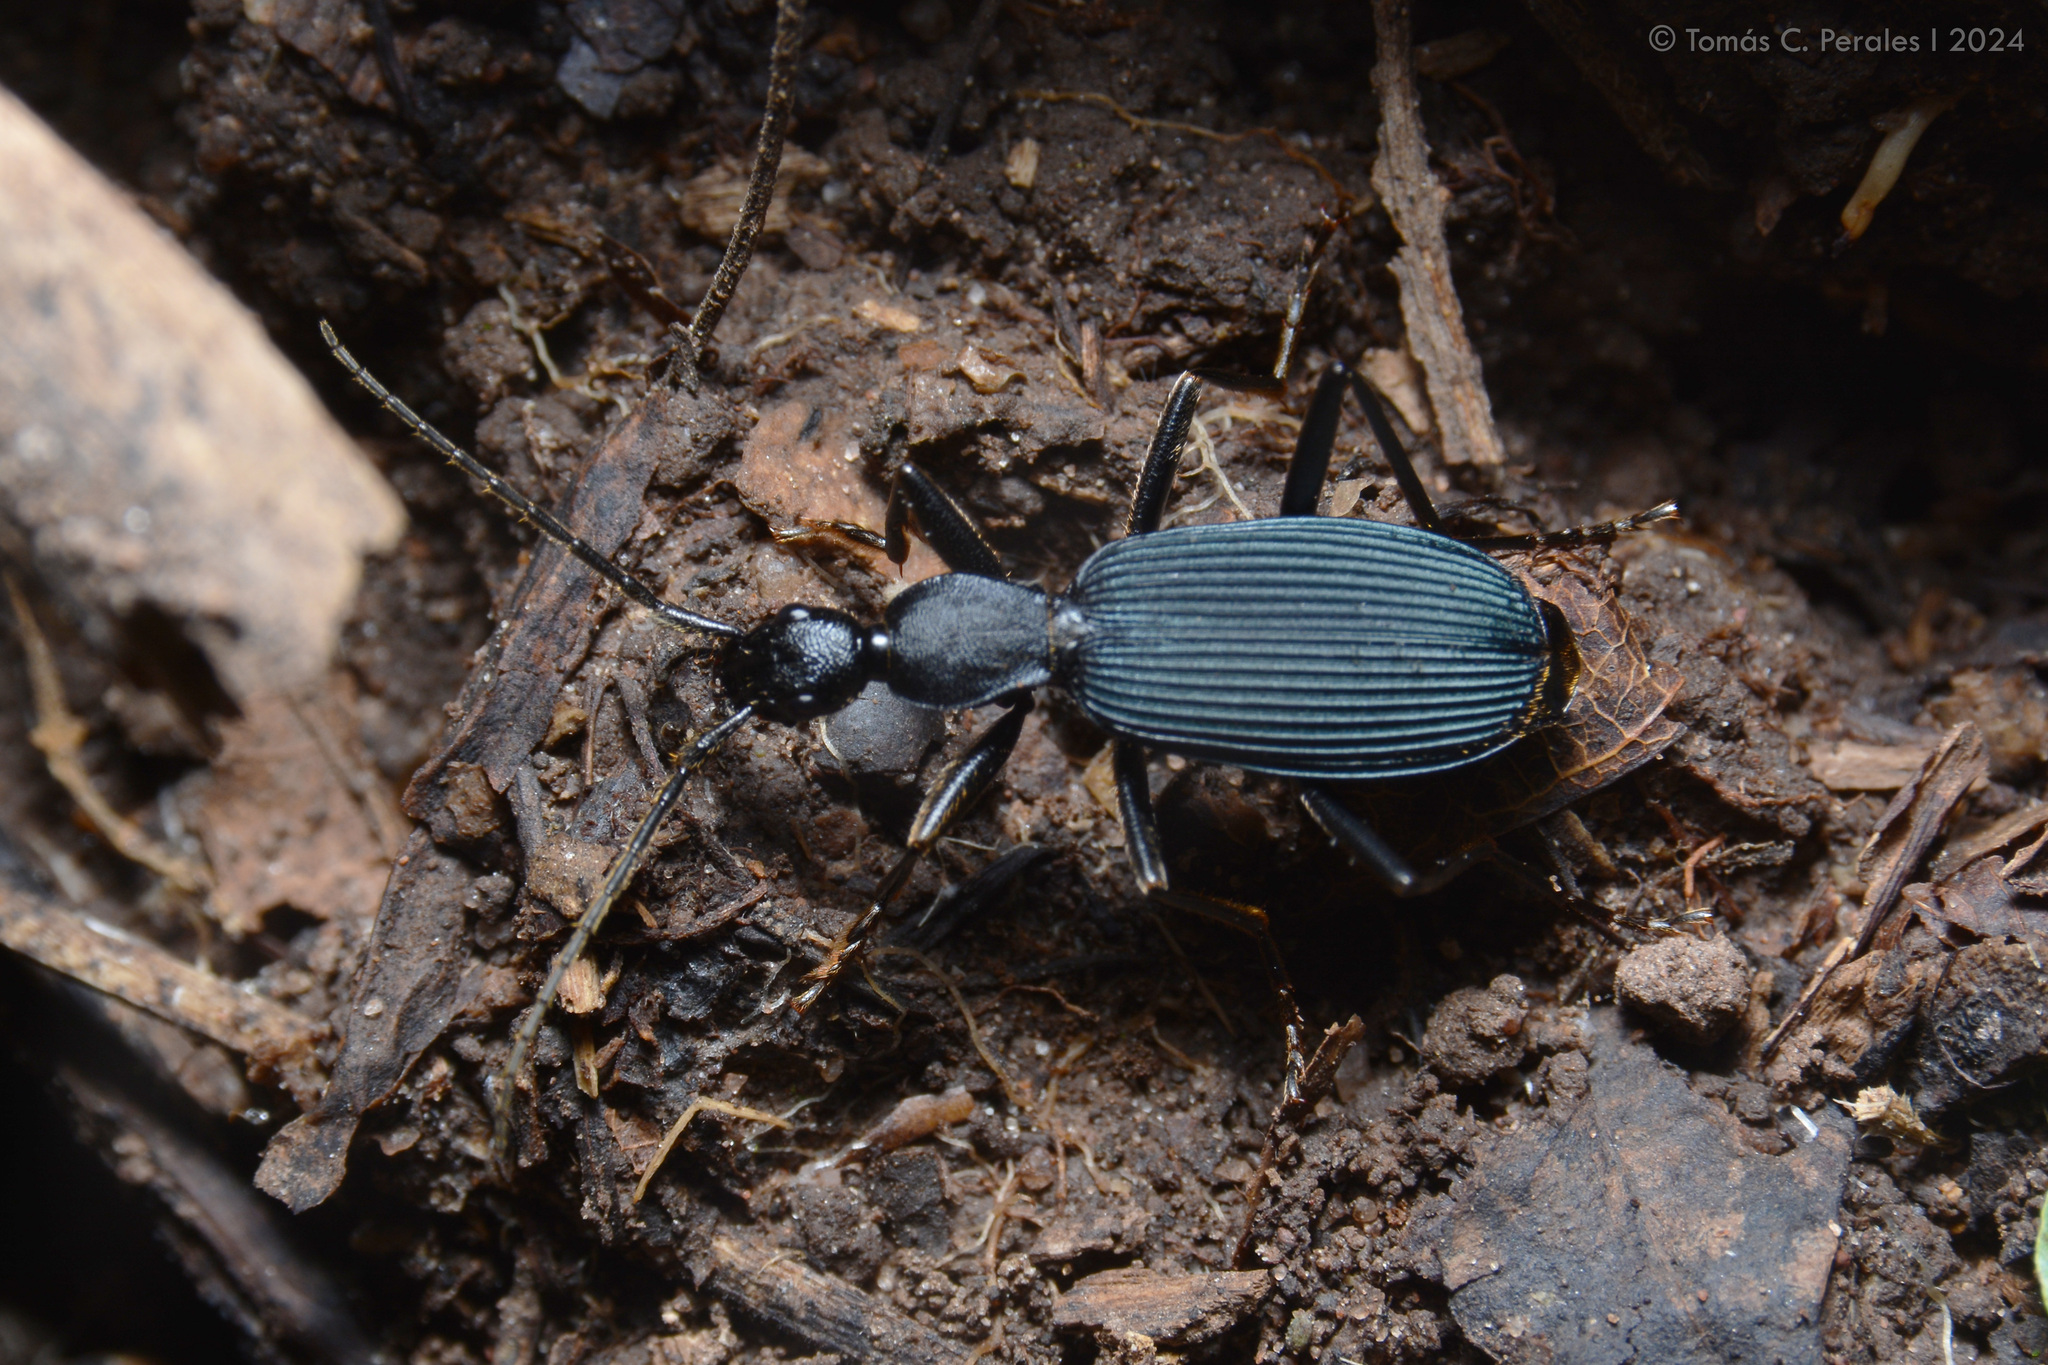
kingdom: Animalia
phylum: Arthropoda
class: Insecta
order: Coleoptera
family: Carabidae
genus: Galerita
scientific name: Galerita coeruleipennis
